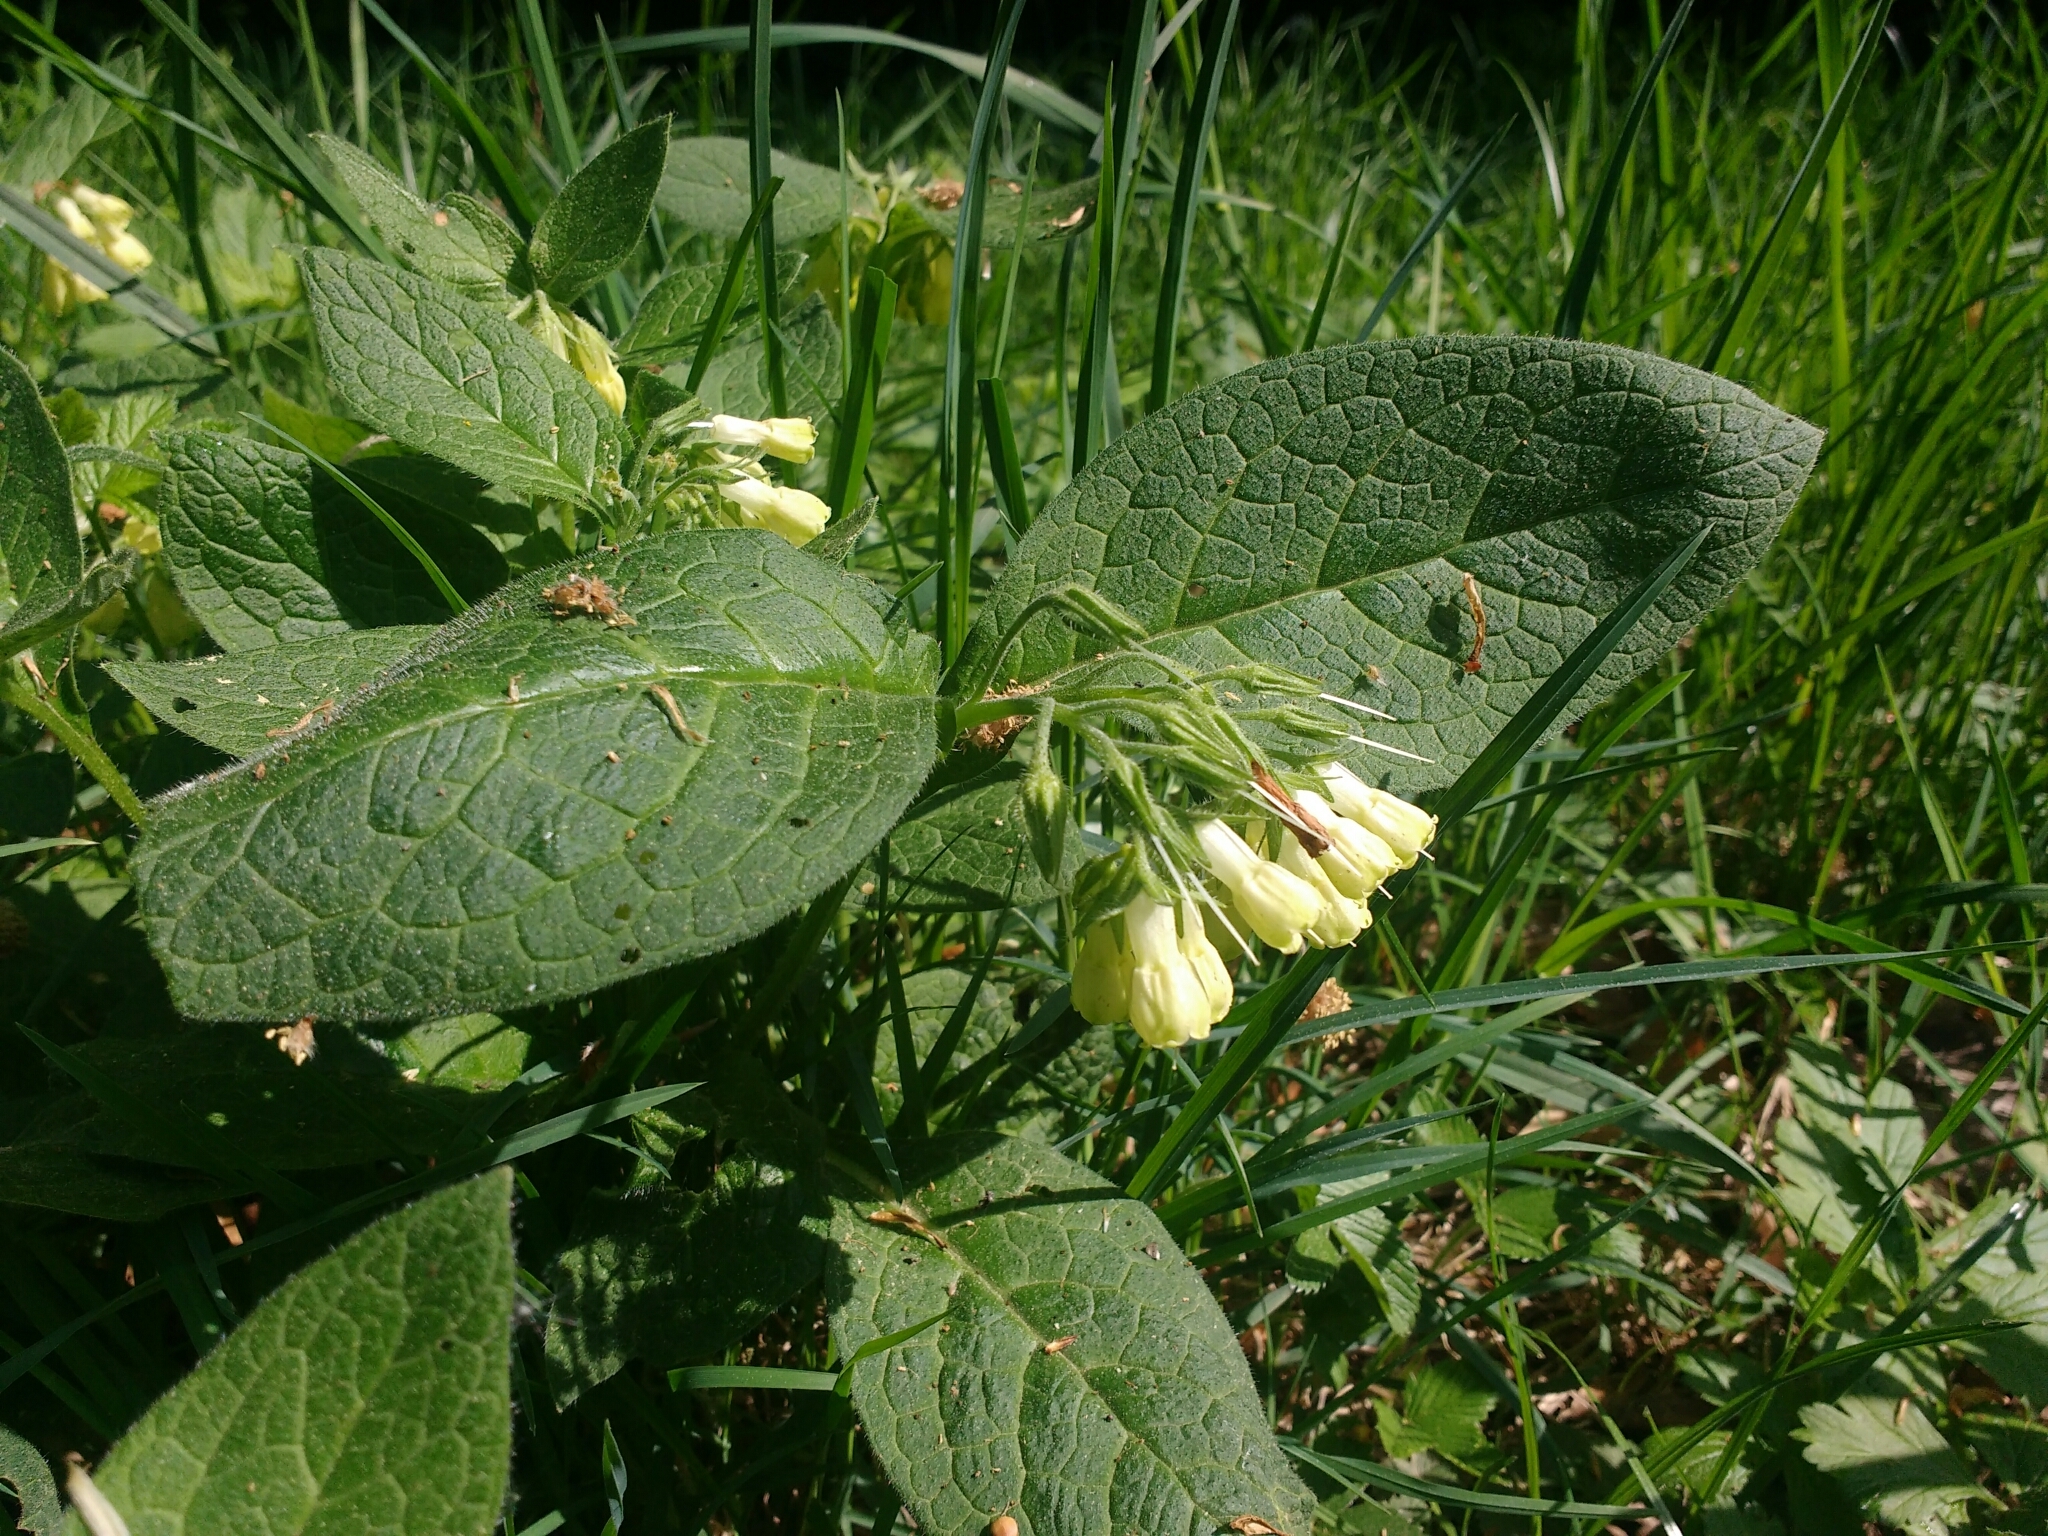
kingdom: Plantae
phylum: Tracheophyta
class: Magnoliopsida
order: Boraginales
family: Boraginaceae
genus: Symphytum
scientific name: Symphytum tuberosum
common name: Tuberous comfrey
